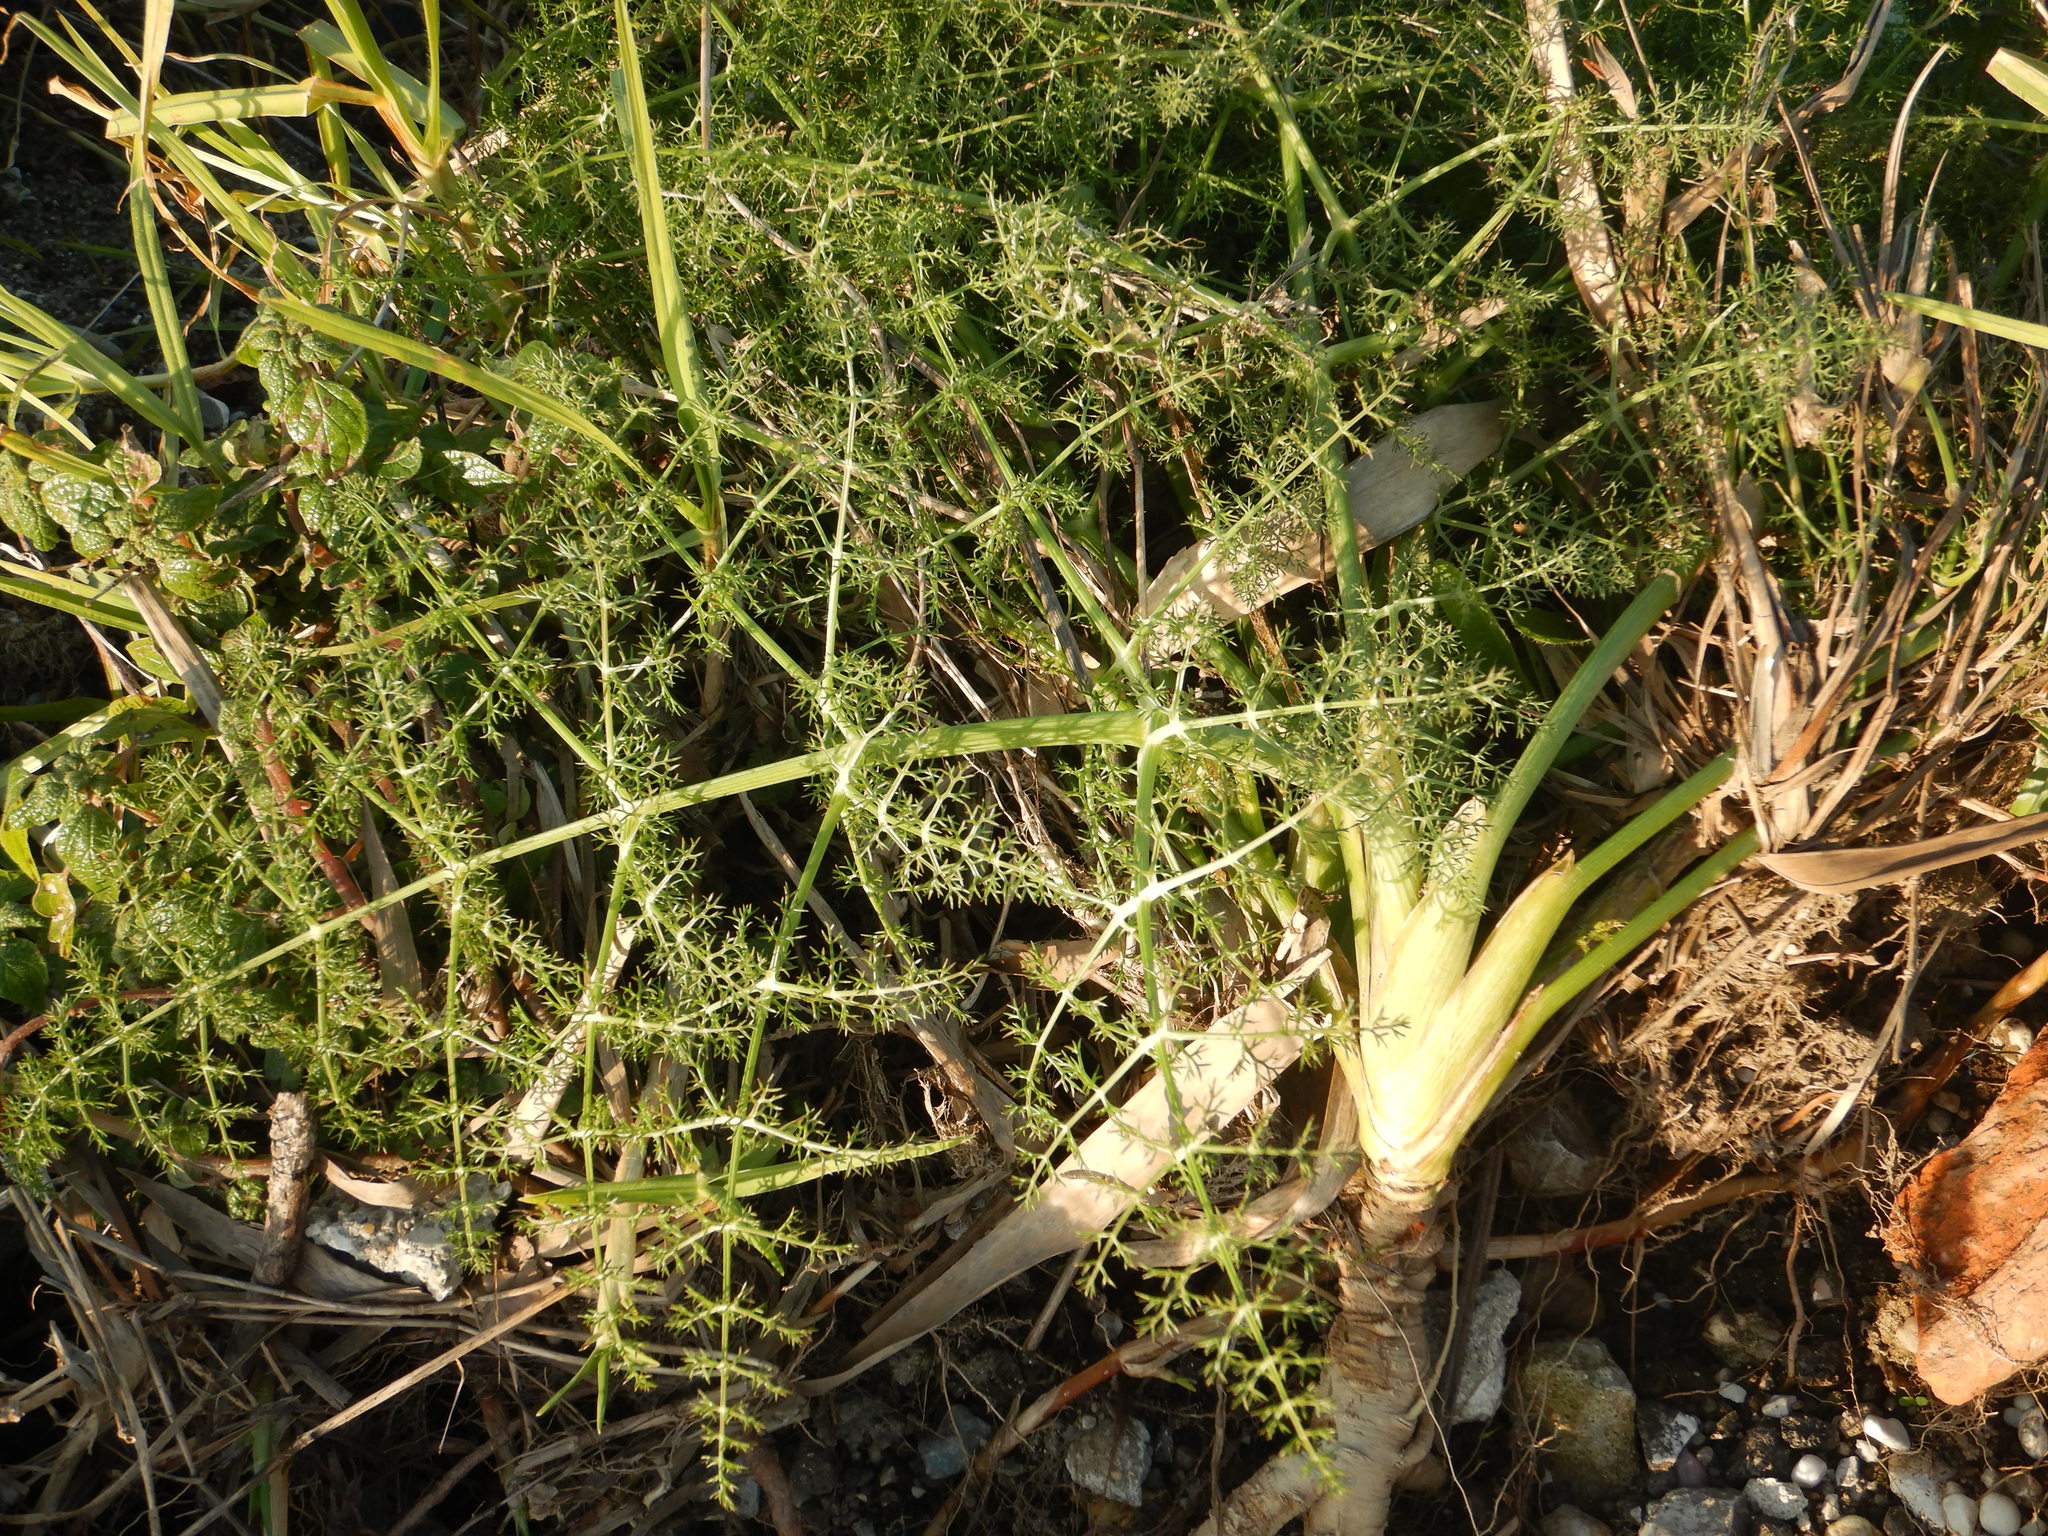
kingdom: Plantae
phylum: Tracheophyta
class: Magnoliopsida
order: Apiales
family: Apiaceae
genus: Foeniculum
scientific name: Foeniculum vulgare
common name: Fennel
